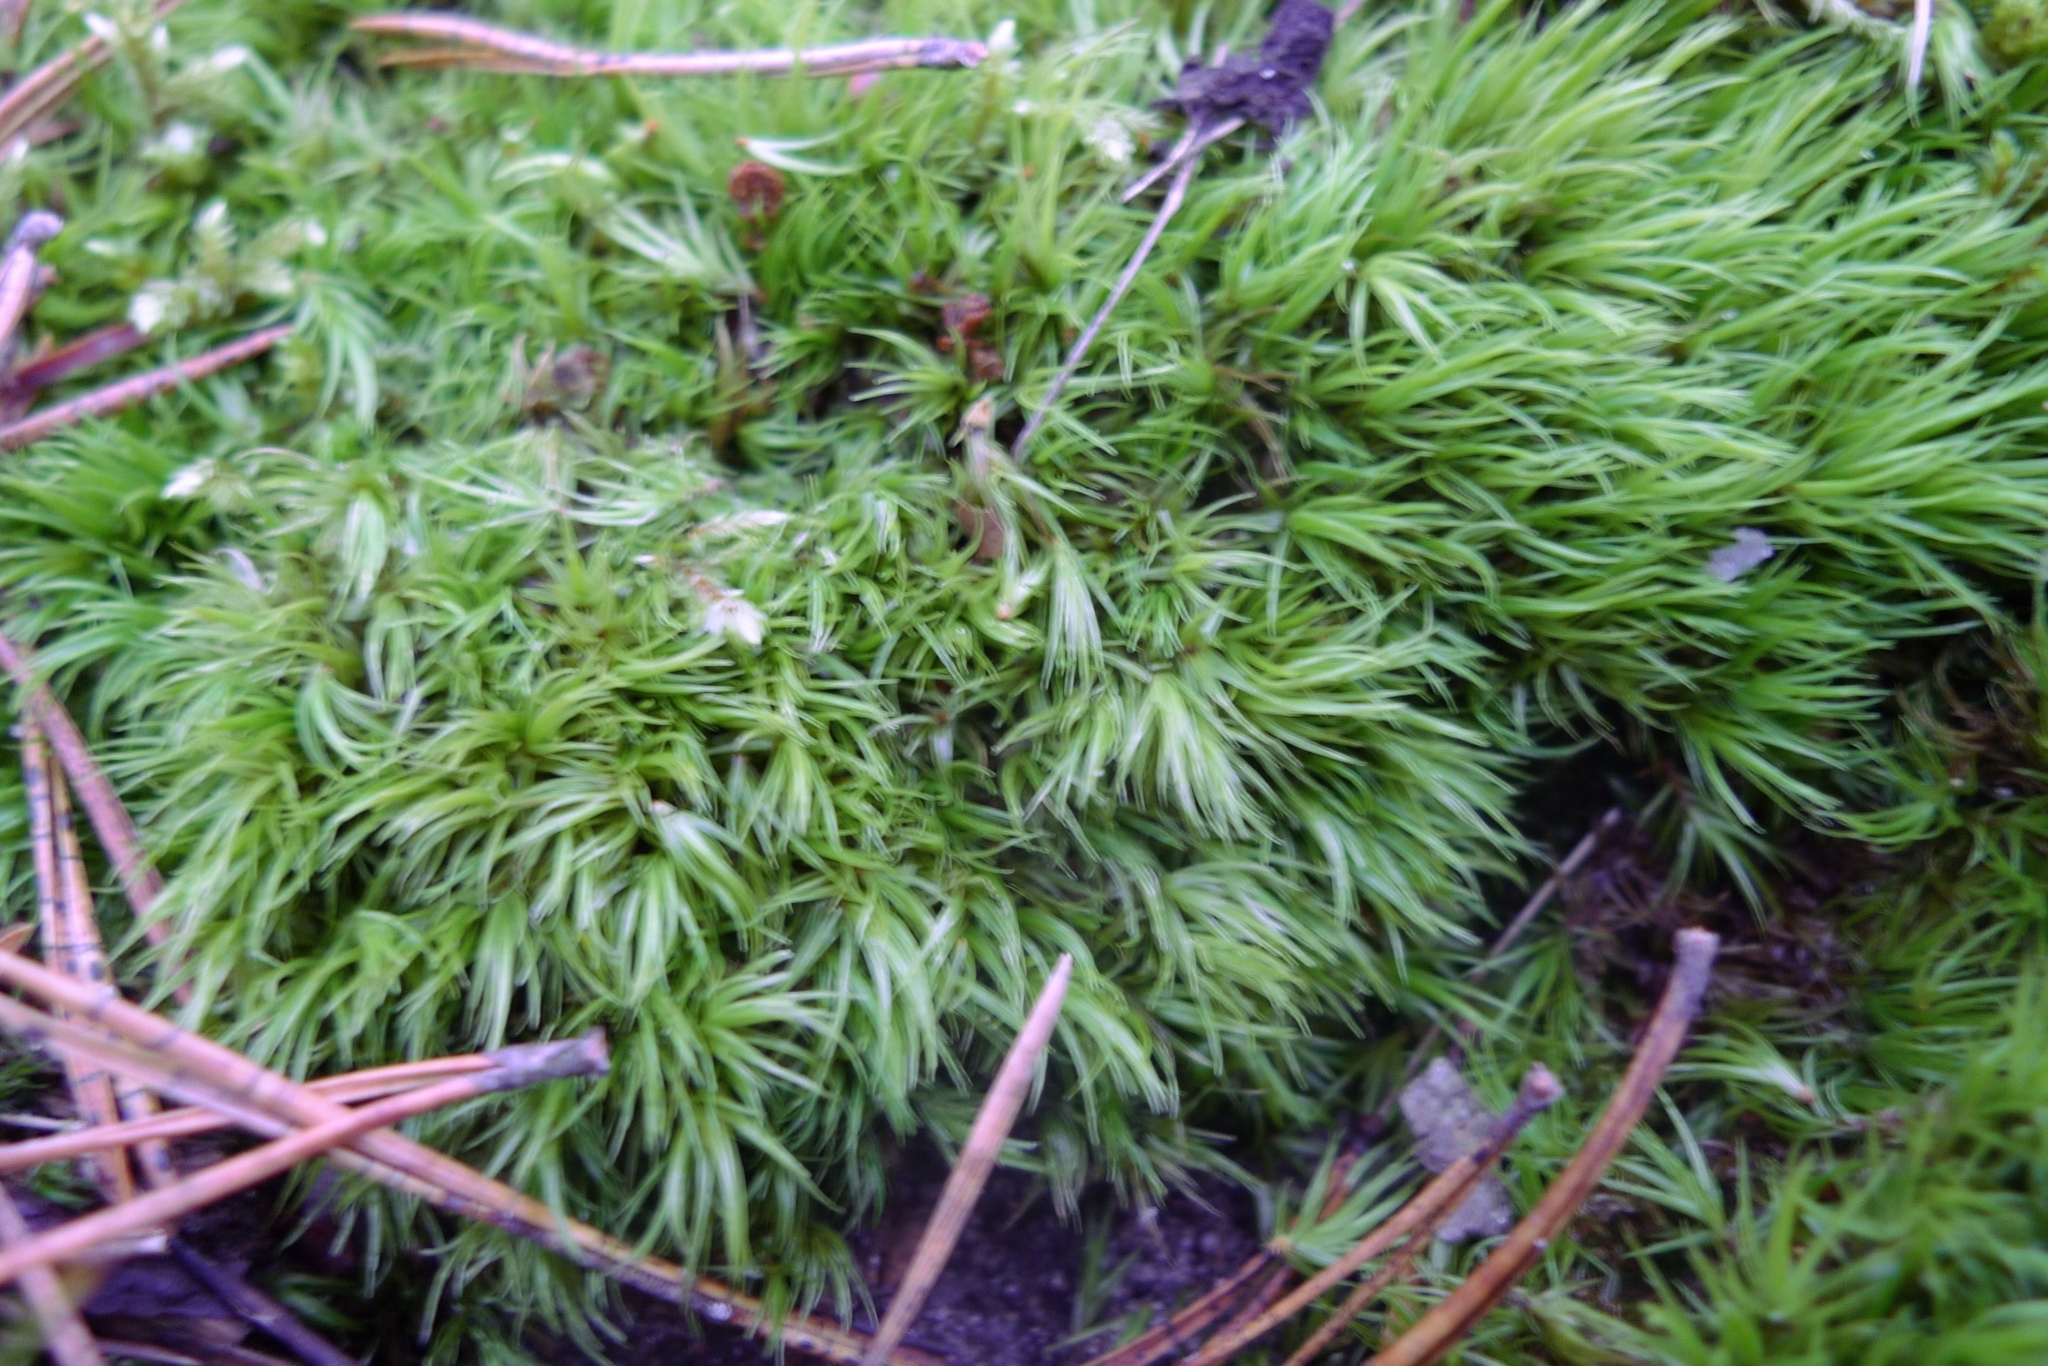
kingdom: Plantae
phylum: Bryophyta
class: Bryopsida
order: Dicranales
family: Dicranaceae
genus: Dicranum
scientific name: Dicranum scoparium
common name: Broom fork-moss
